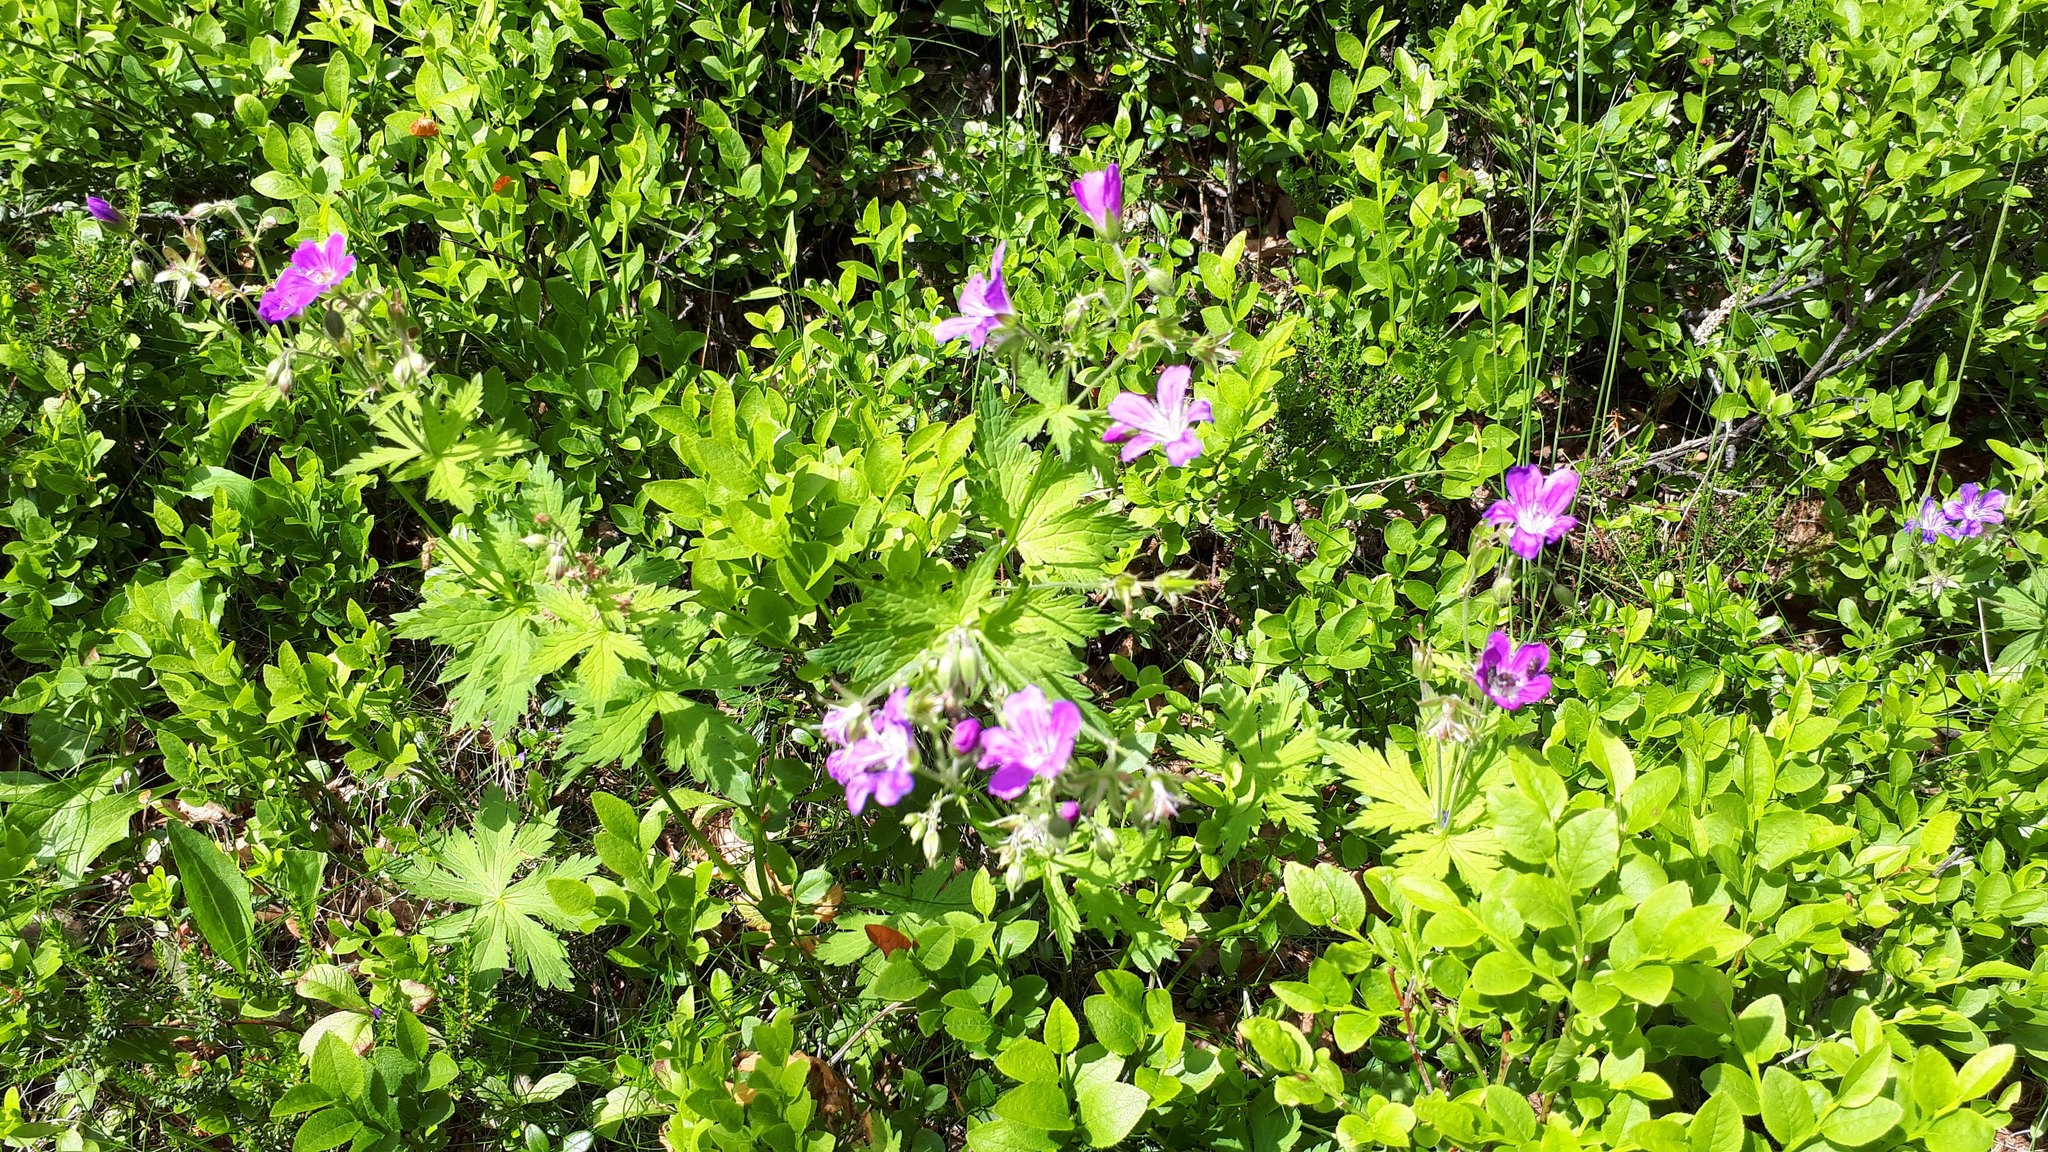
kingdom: Plantae
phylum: Tracheophyta
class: Magnoliopsida
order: Geraniales
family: Geraniaceae
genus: Geranium
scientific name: Geranium sylvaticum
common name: Wood crane's-bill
